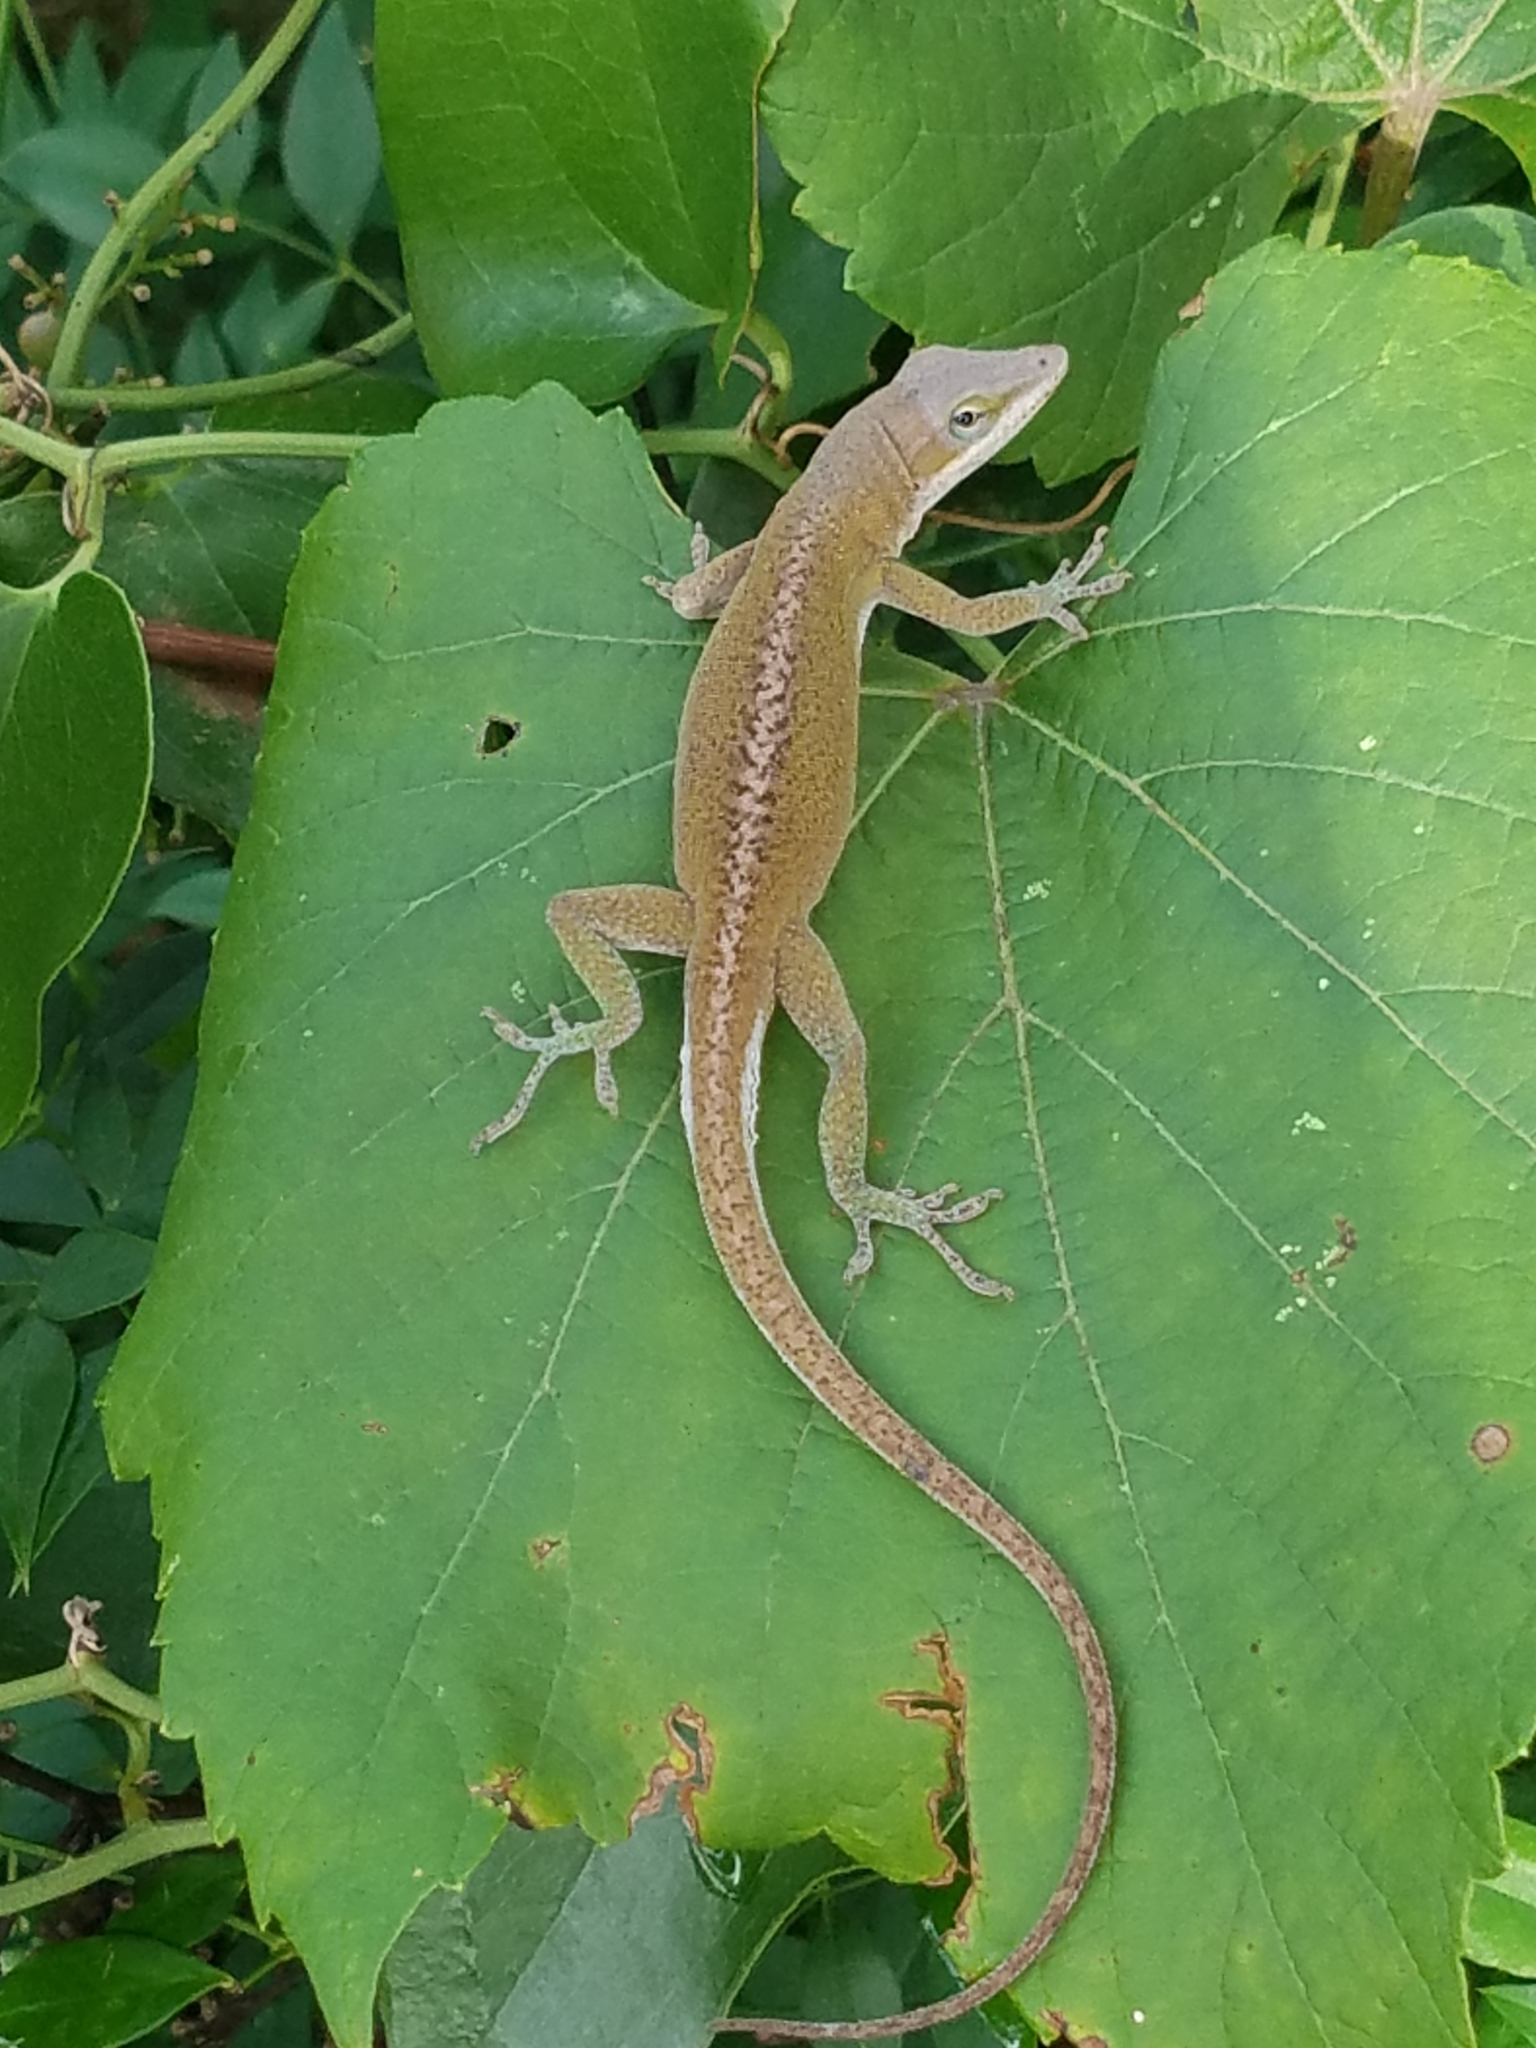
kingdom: Animalia
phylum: Chordata
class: Squamata
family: Dactyloidae
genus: Anolis
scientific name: Anolis carolinensis
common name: Green anole
